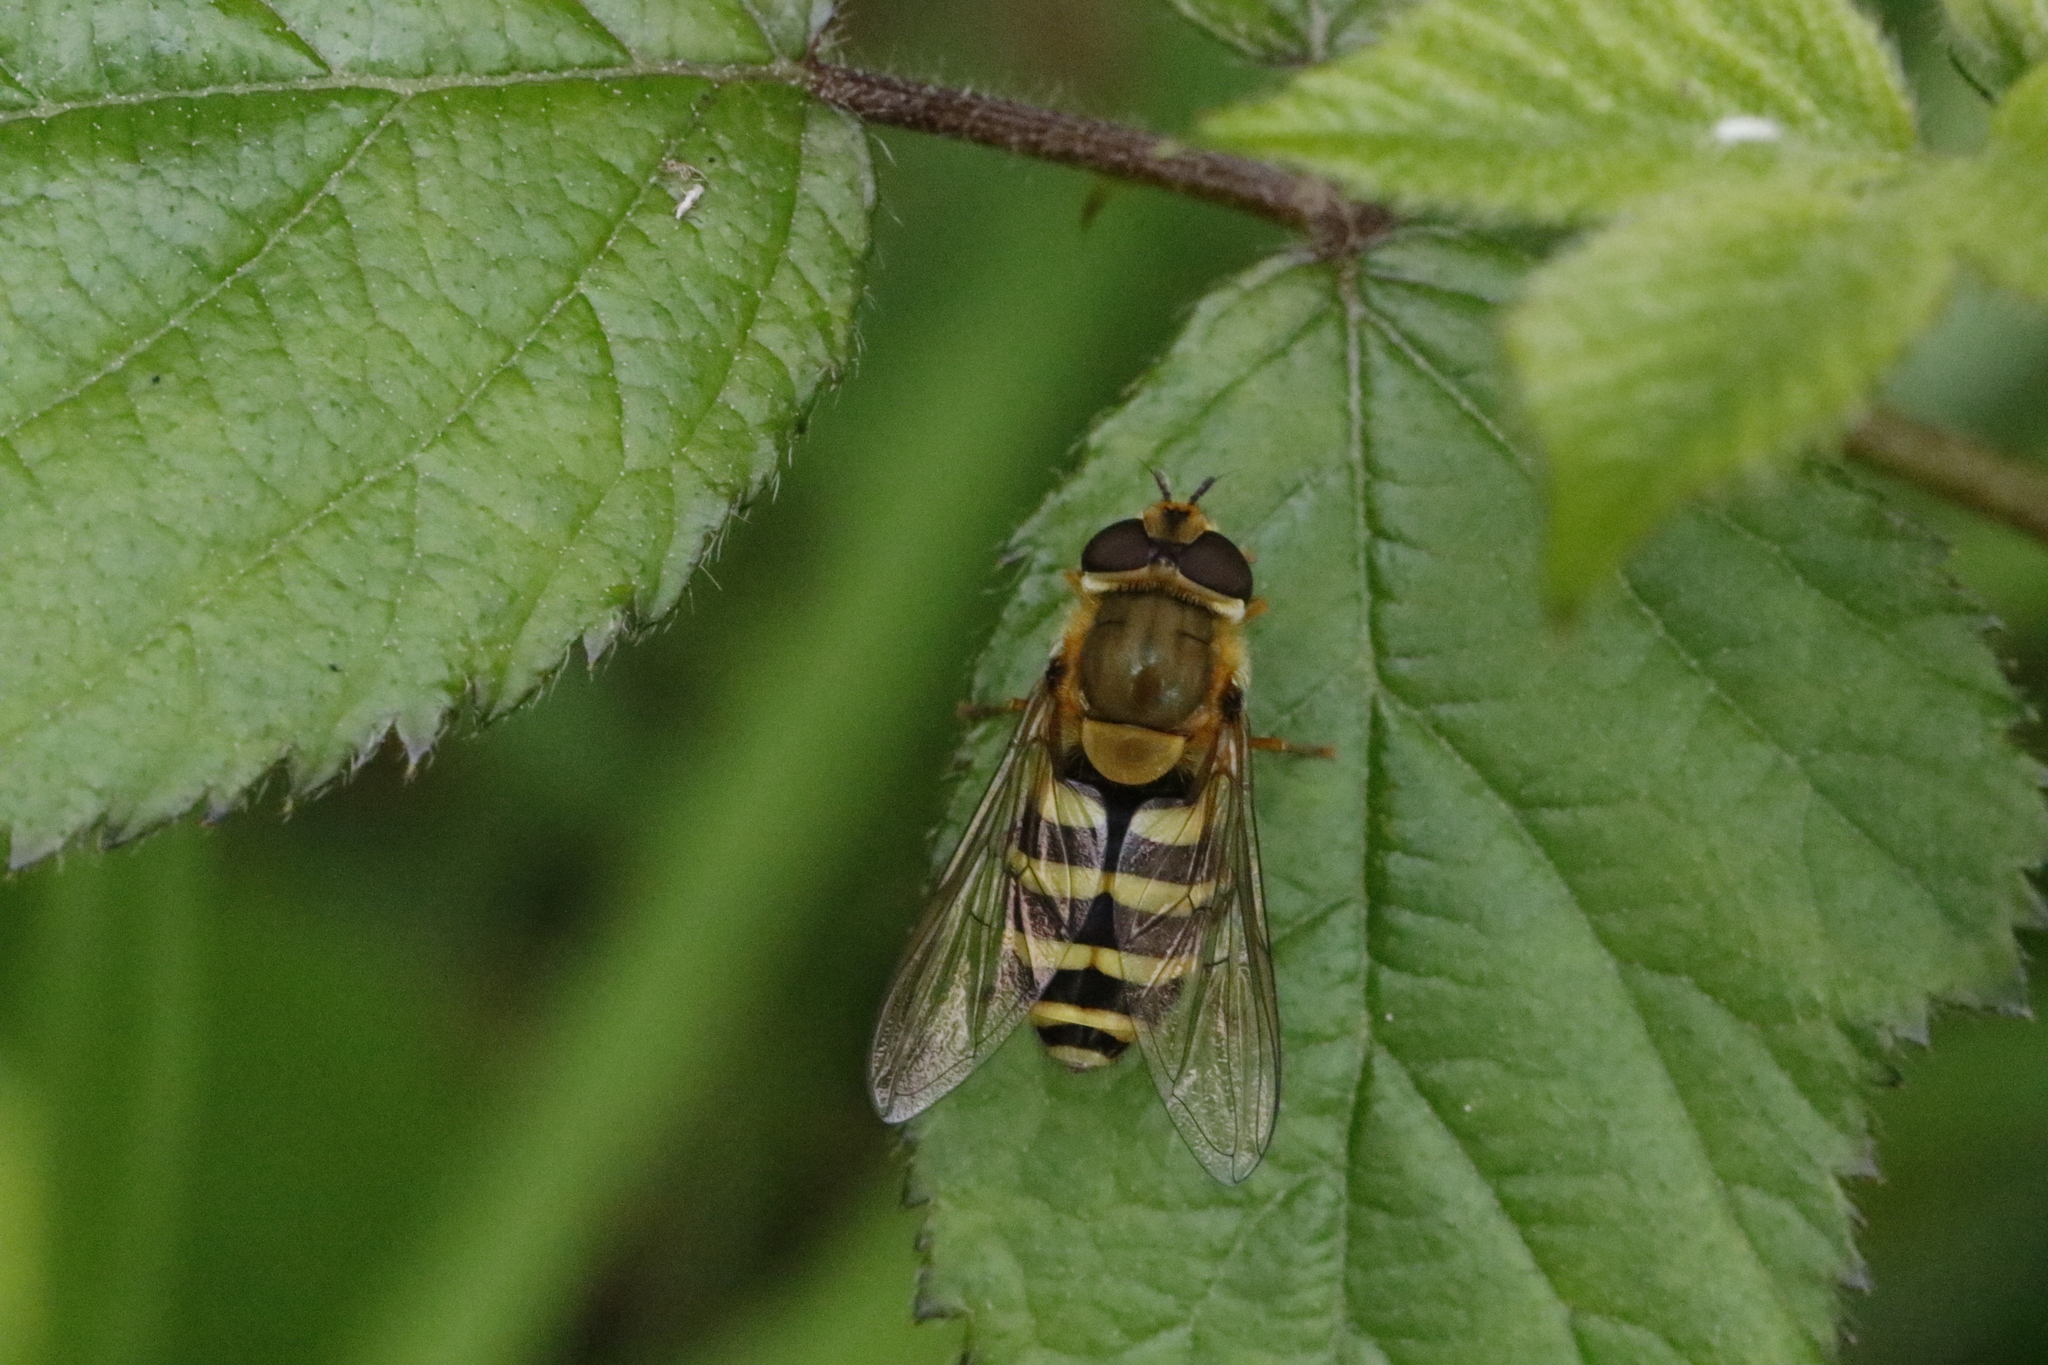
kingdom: Animalia
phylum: Arthropoda
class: Insecta
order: Diptera
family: Syrphidae
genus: Syrphus
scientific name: Syrphus
